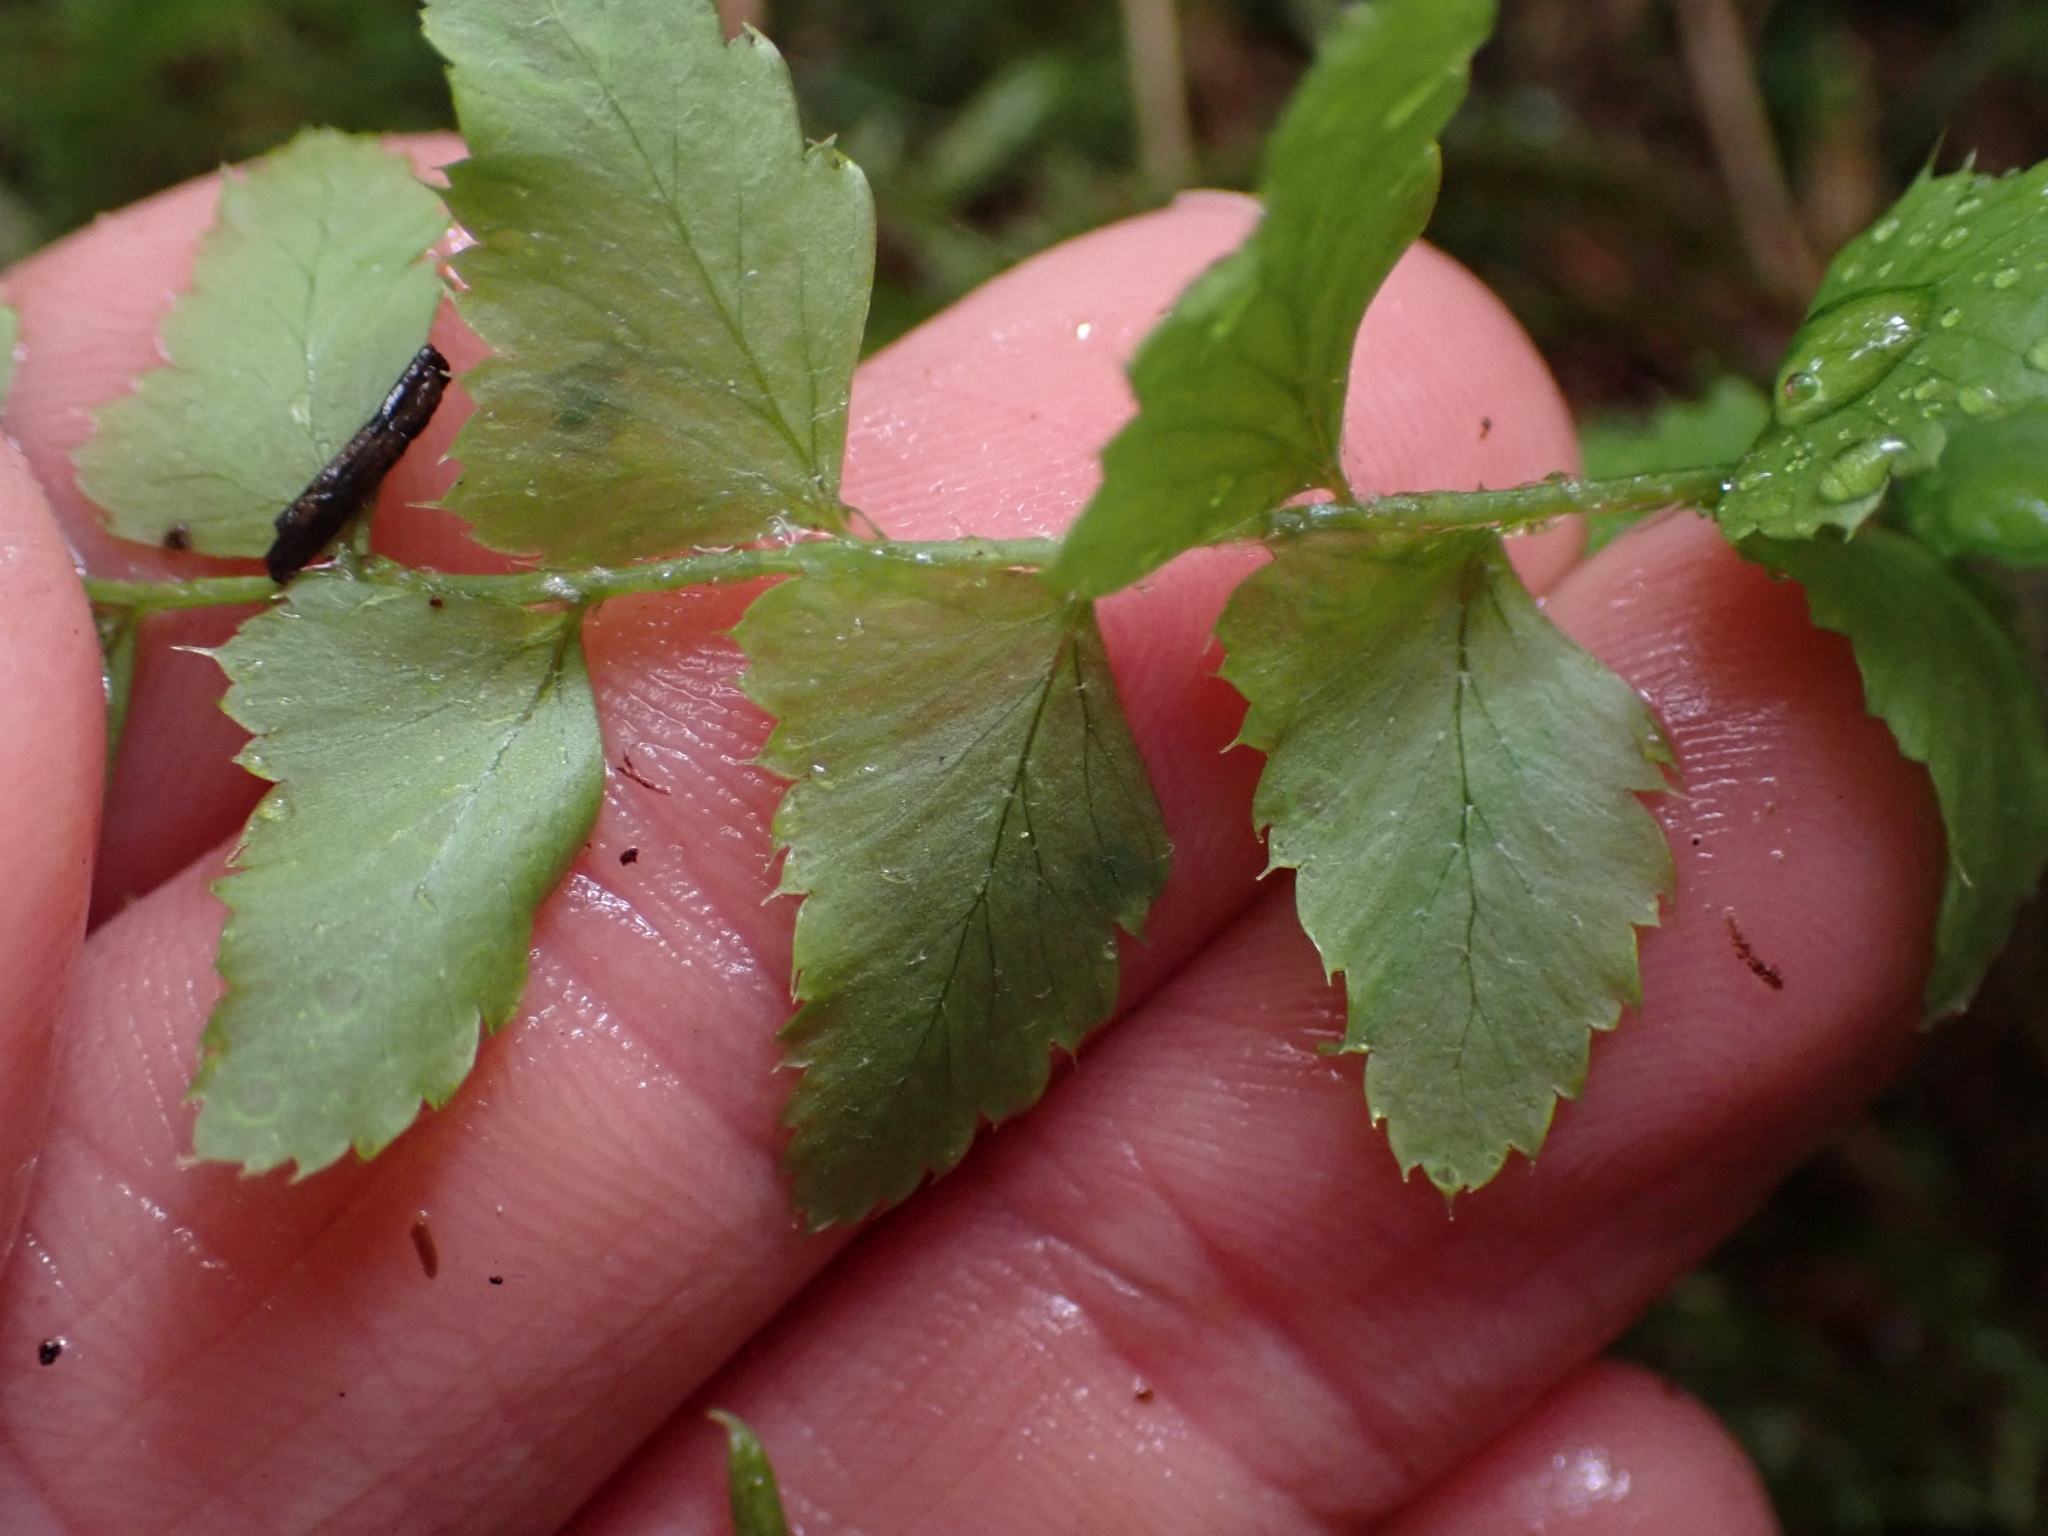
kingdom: Plantae
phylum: Tracheophyta
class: Polypodiopsida
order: Polypodiales
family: Dryopteridaceae
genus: Polystichum
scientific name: Polystichum munitum
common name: Western sword-fern
